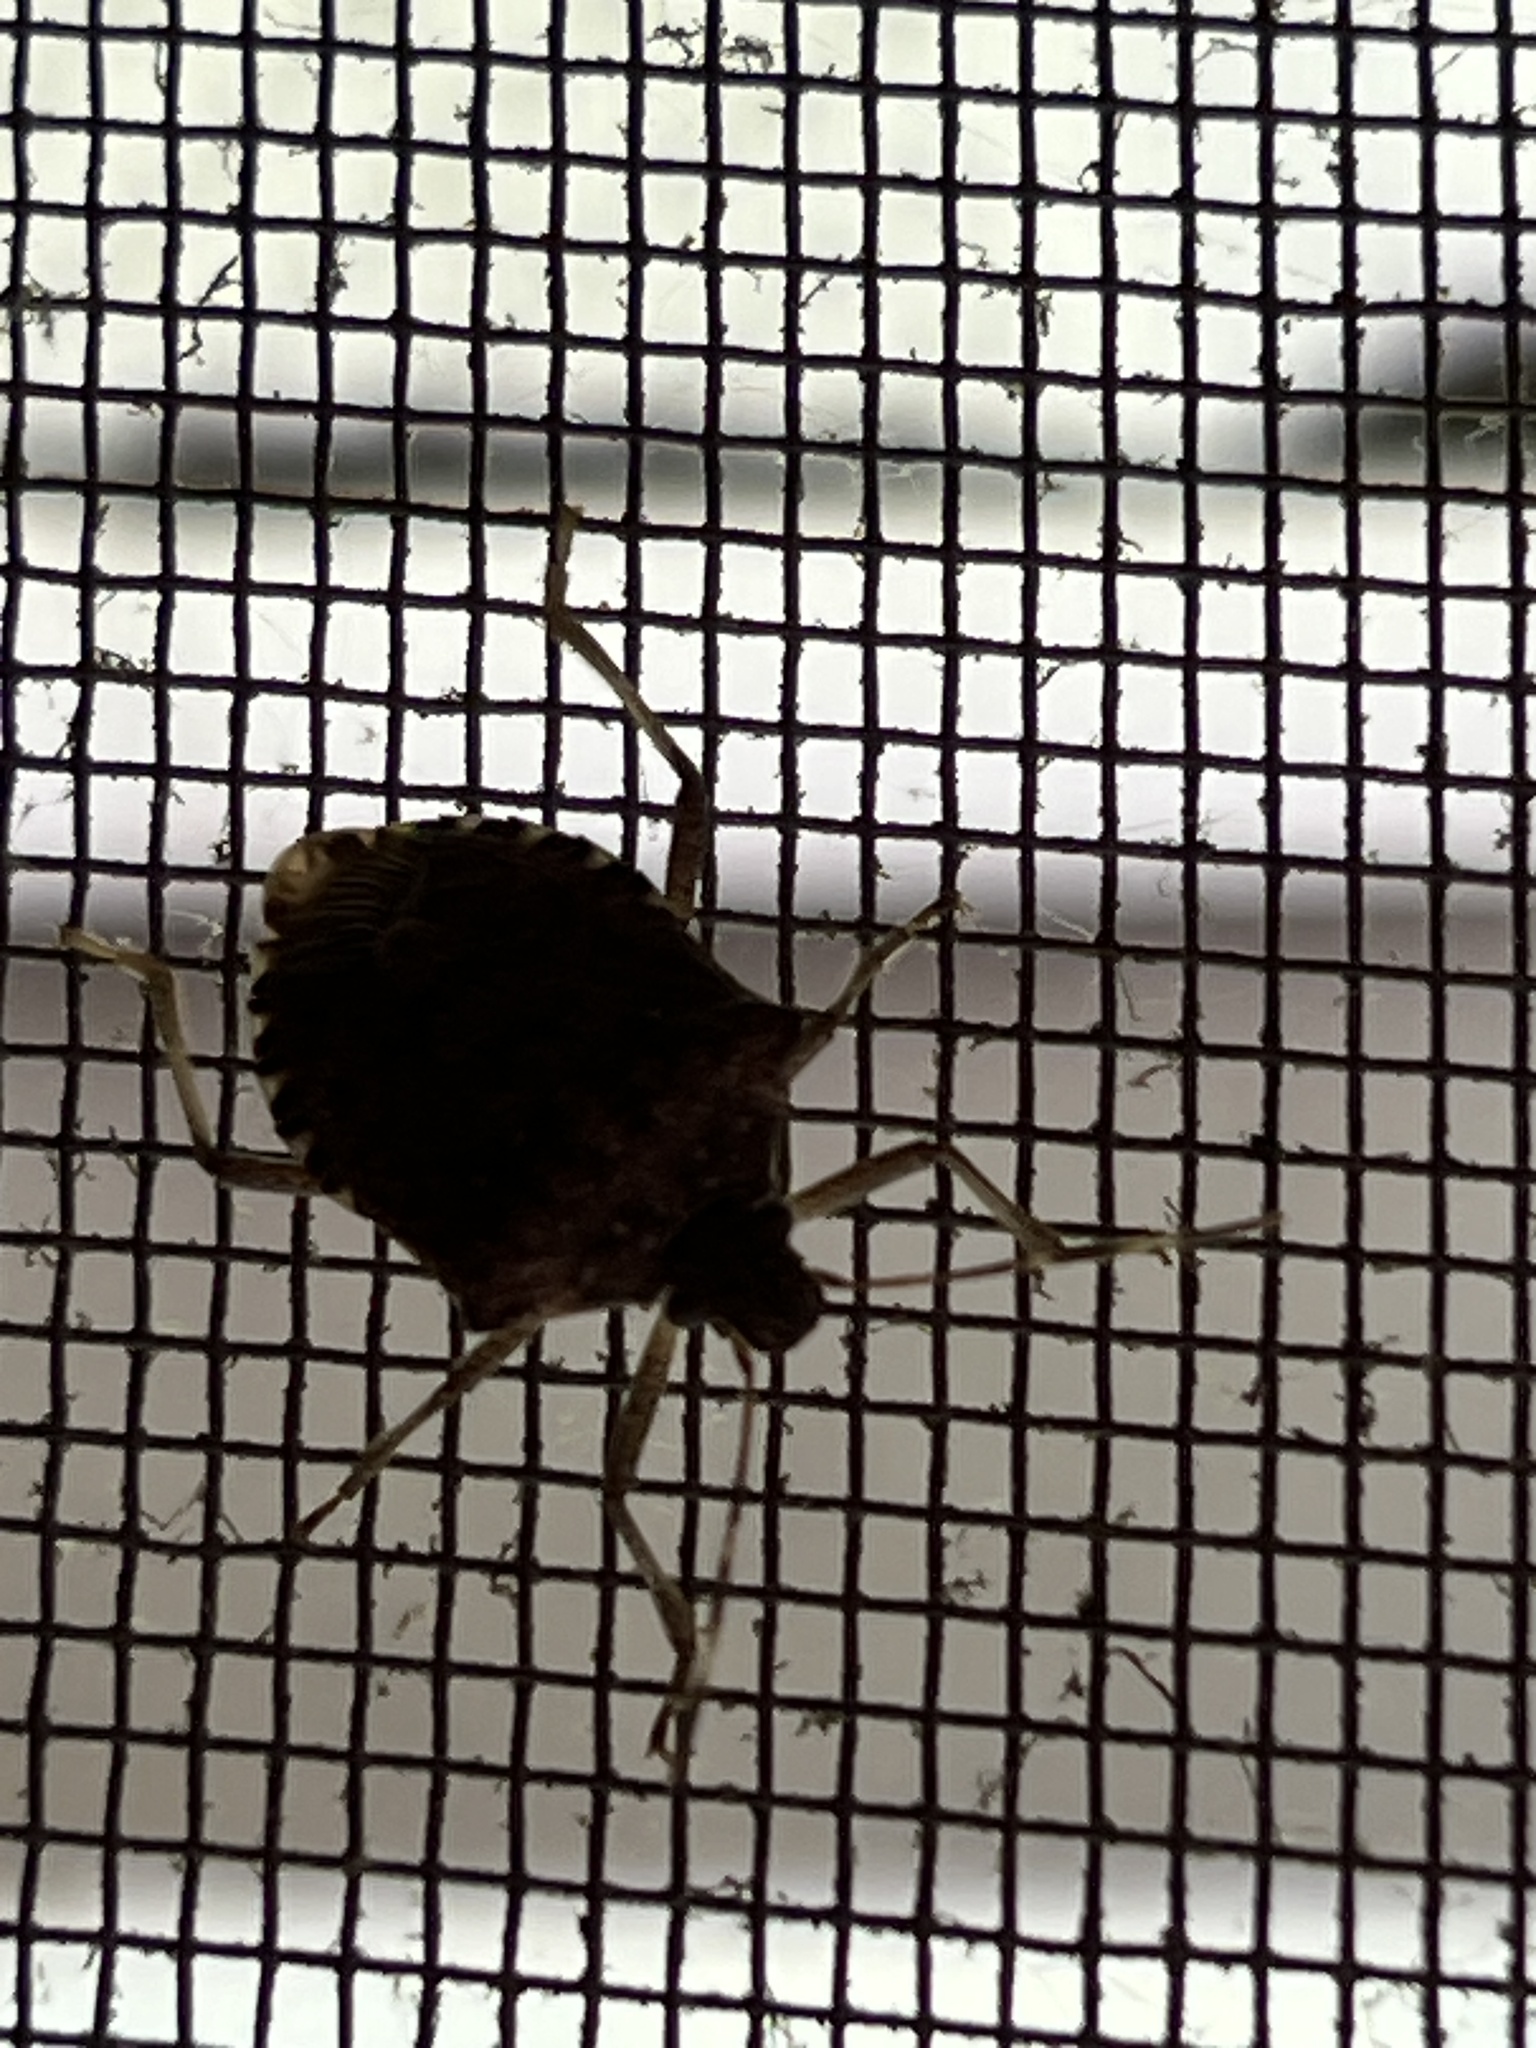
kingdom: Animalia
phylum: Arthropoda
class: Insecta
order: Hemiptera
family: Pentatomidae
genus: Halyomorpha
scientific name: Halyomorpha halys
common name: Brown marmorated stink bug
